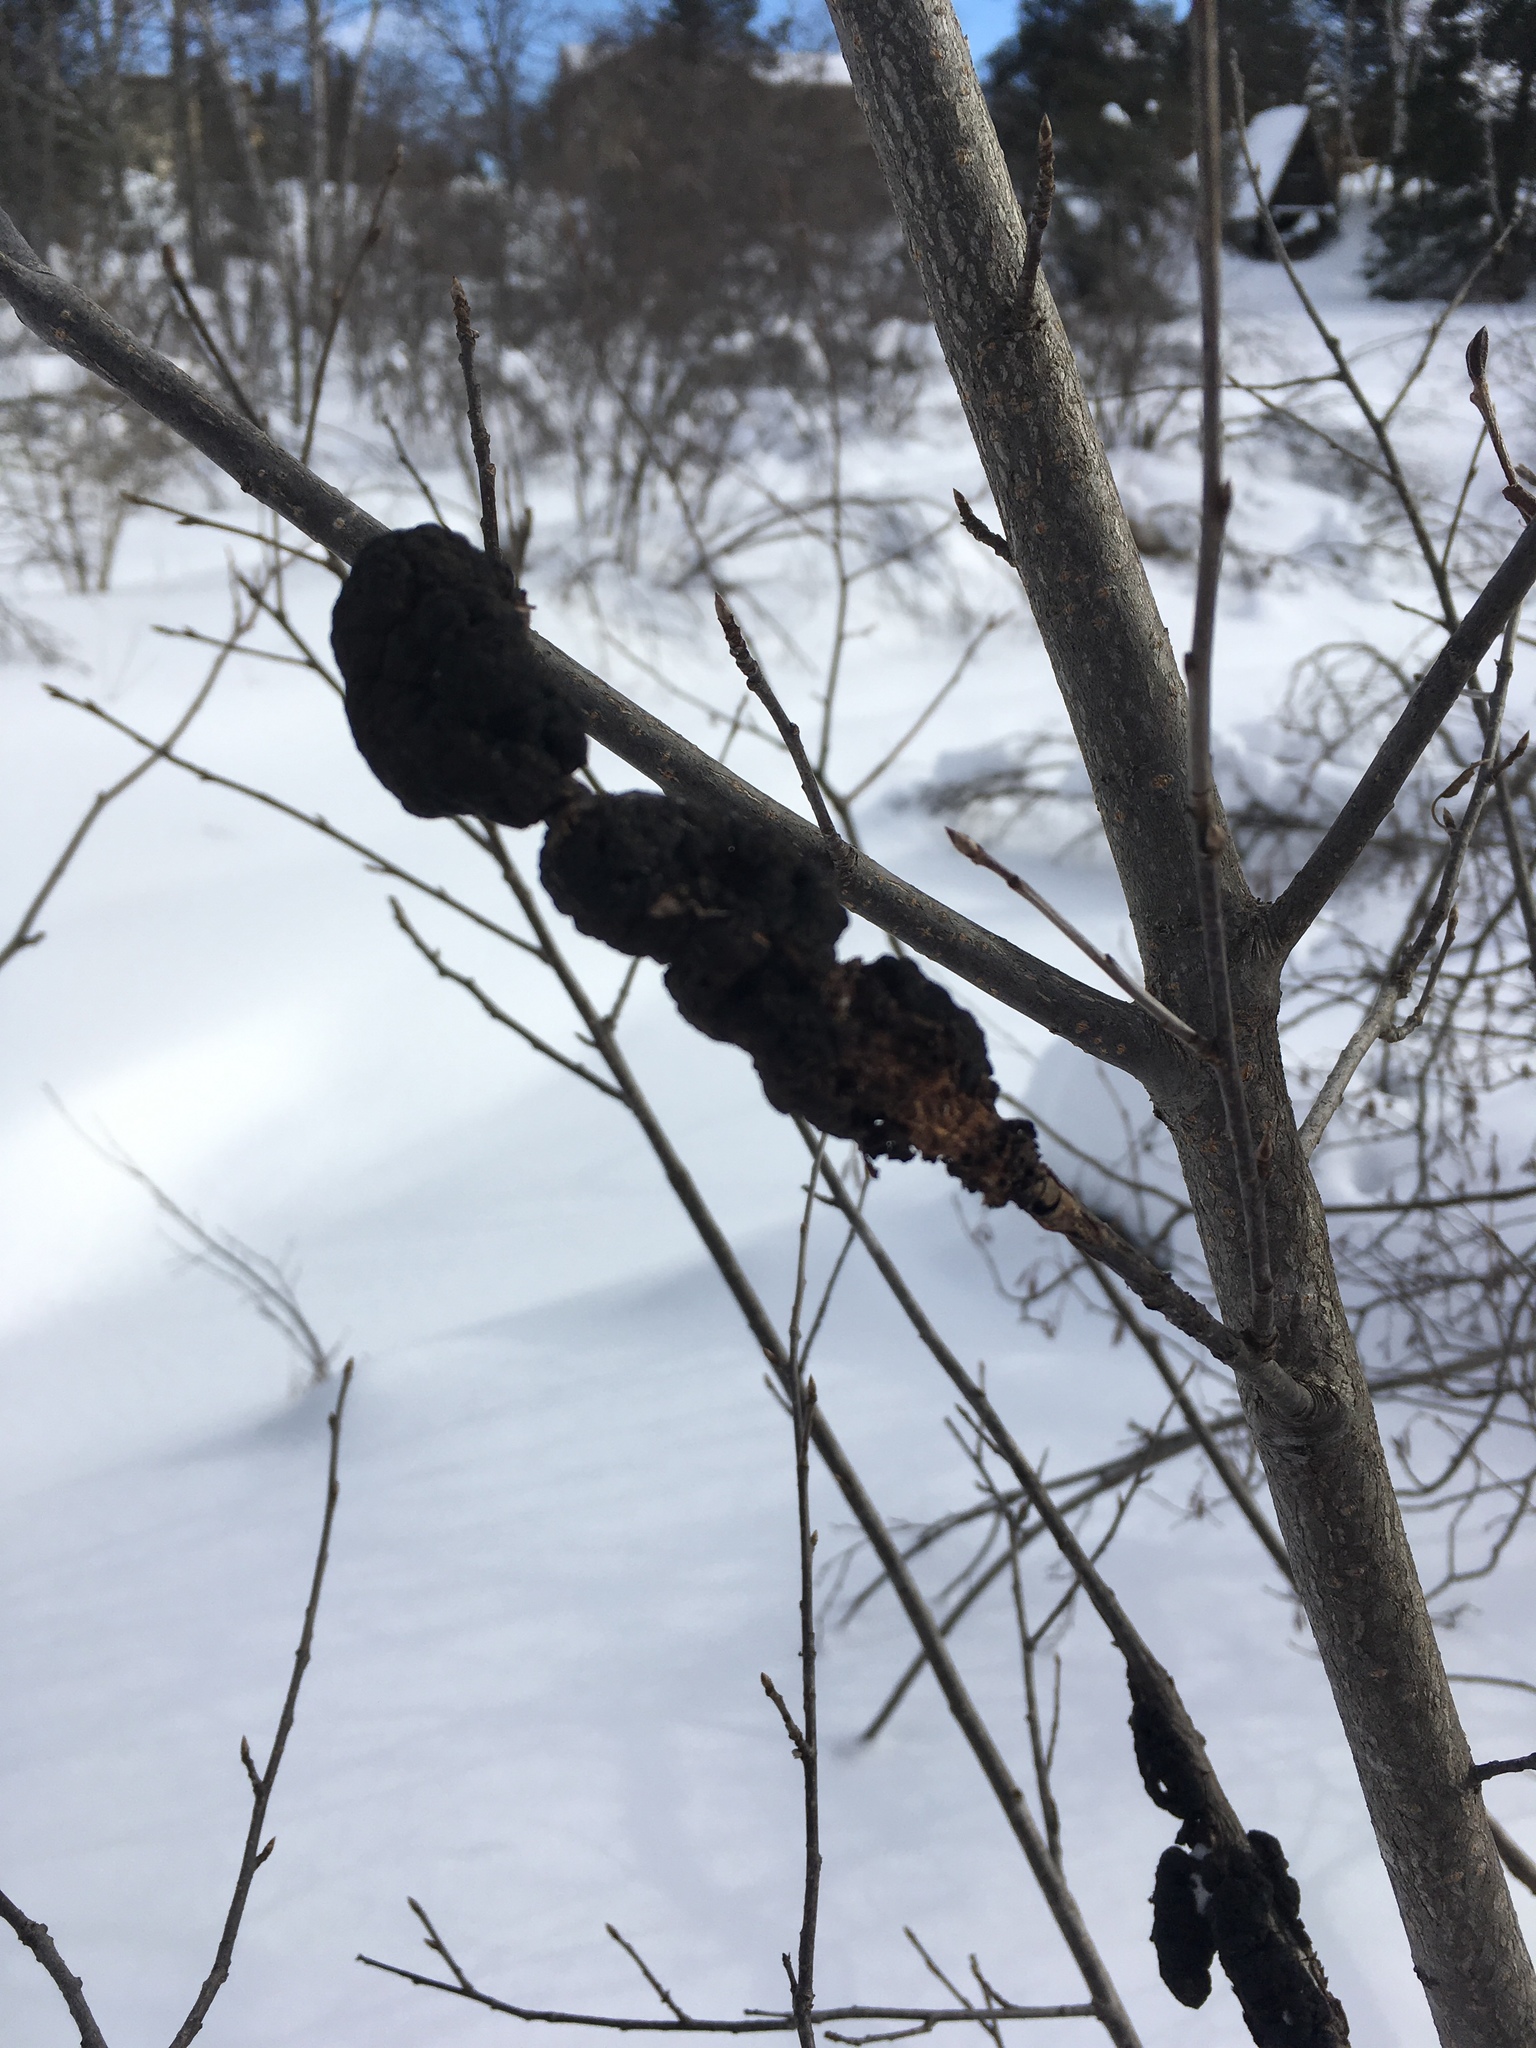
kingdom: Fungi
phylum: Ascomycota
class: Dothideomycetes
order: Venturiales
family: Venturiaceae
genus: Apiosporina
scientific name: Apiosporina morbosa
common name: Black knot
